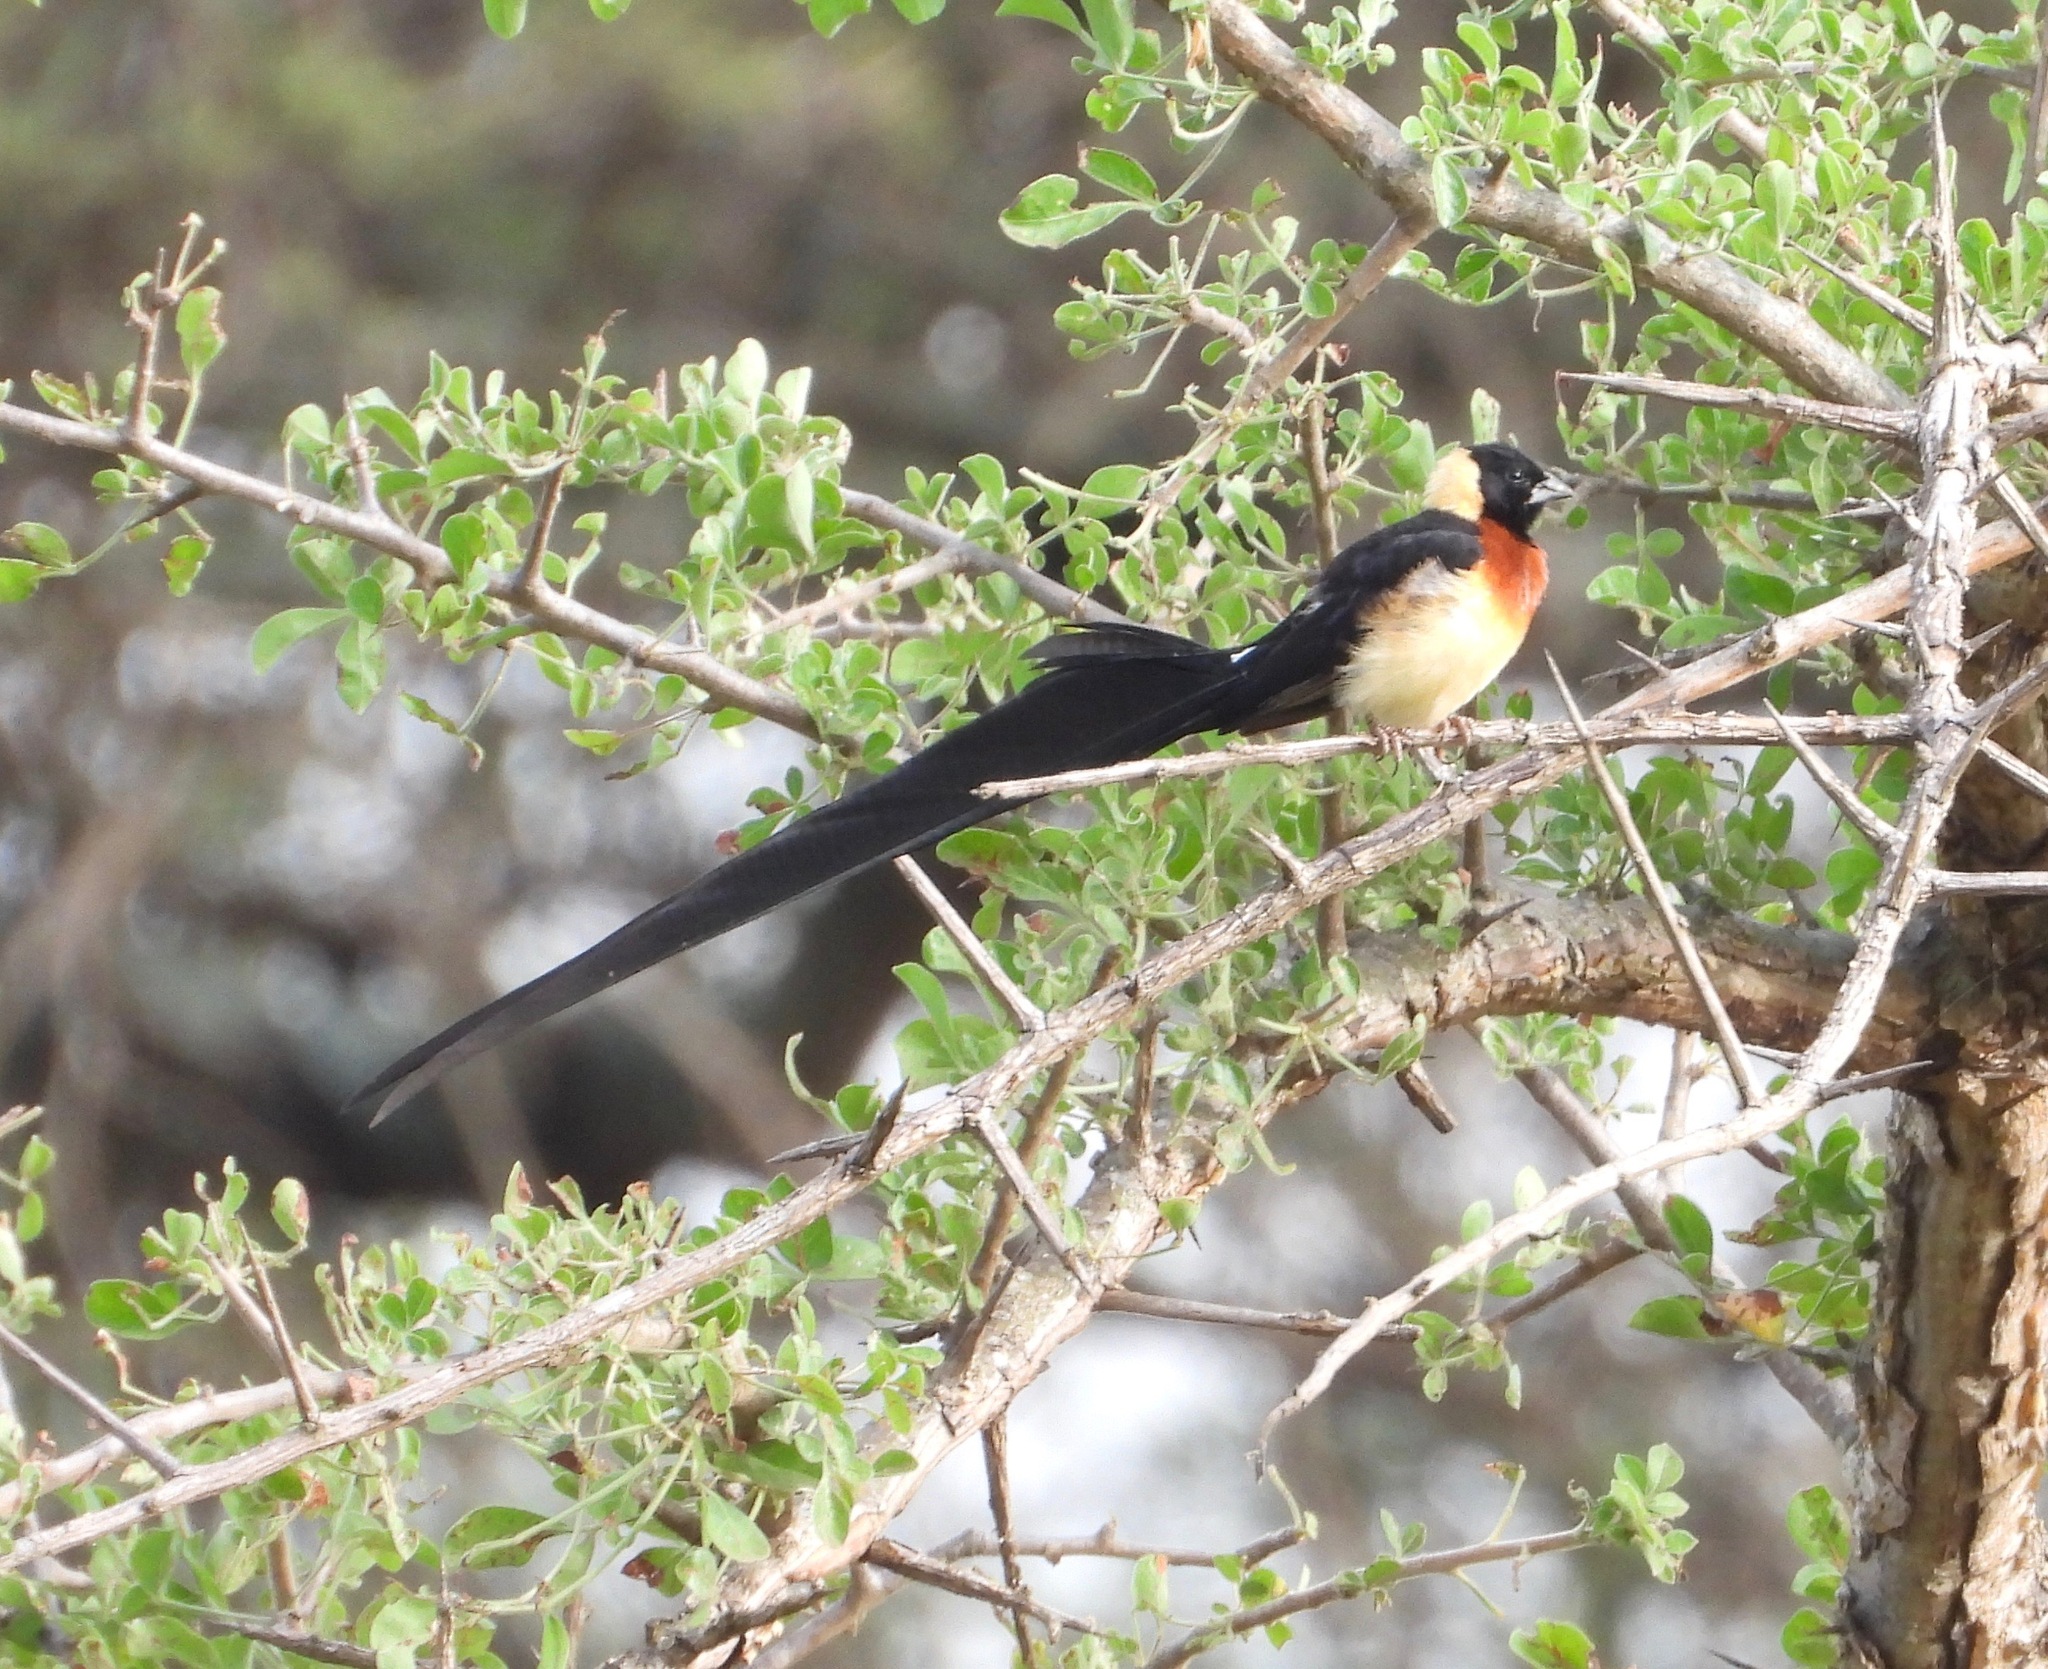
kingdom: Animalia
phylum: Chordata
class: Aves
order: Passeriformes
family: Viduidae
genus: Vidua
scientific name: Vidua paradisaea
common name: Long-tailed paradise whydah
